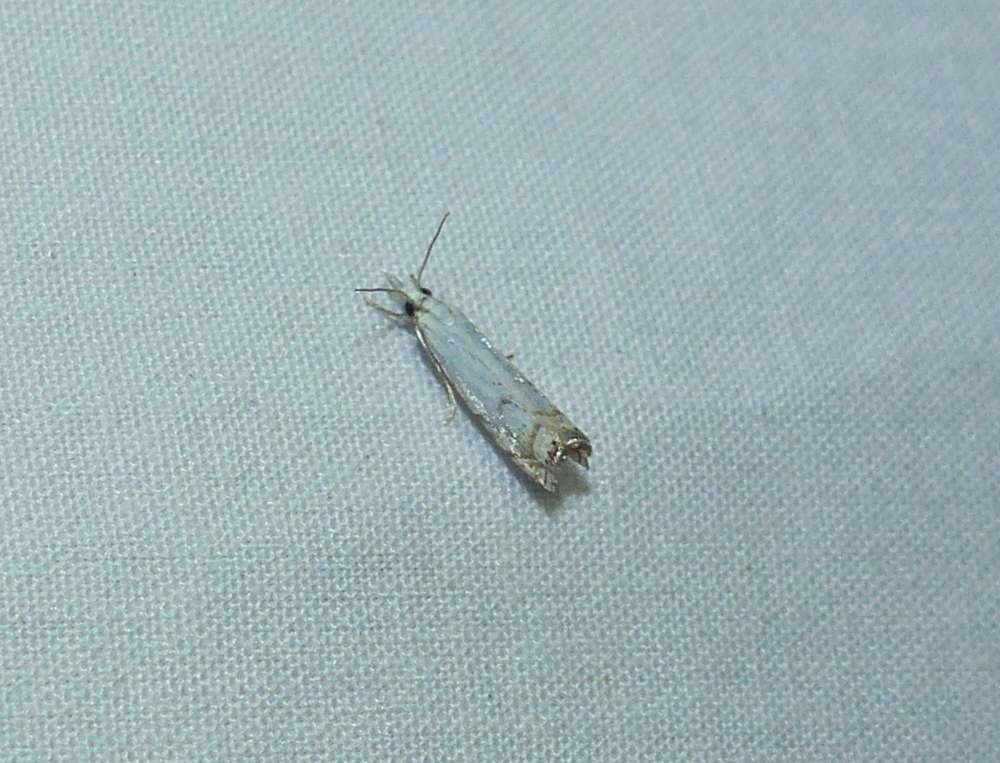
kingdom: Animalia
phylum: Arthropoda
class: Insecta
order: Lepidoptera
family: Crambidae
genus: Crambus
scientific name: Crambus albellus
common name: Small white grass-veneer
